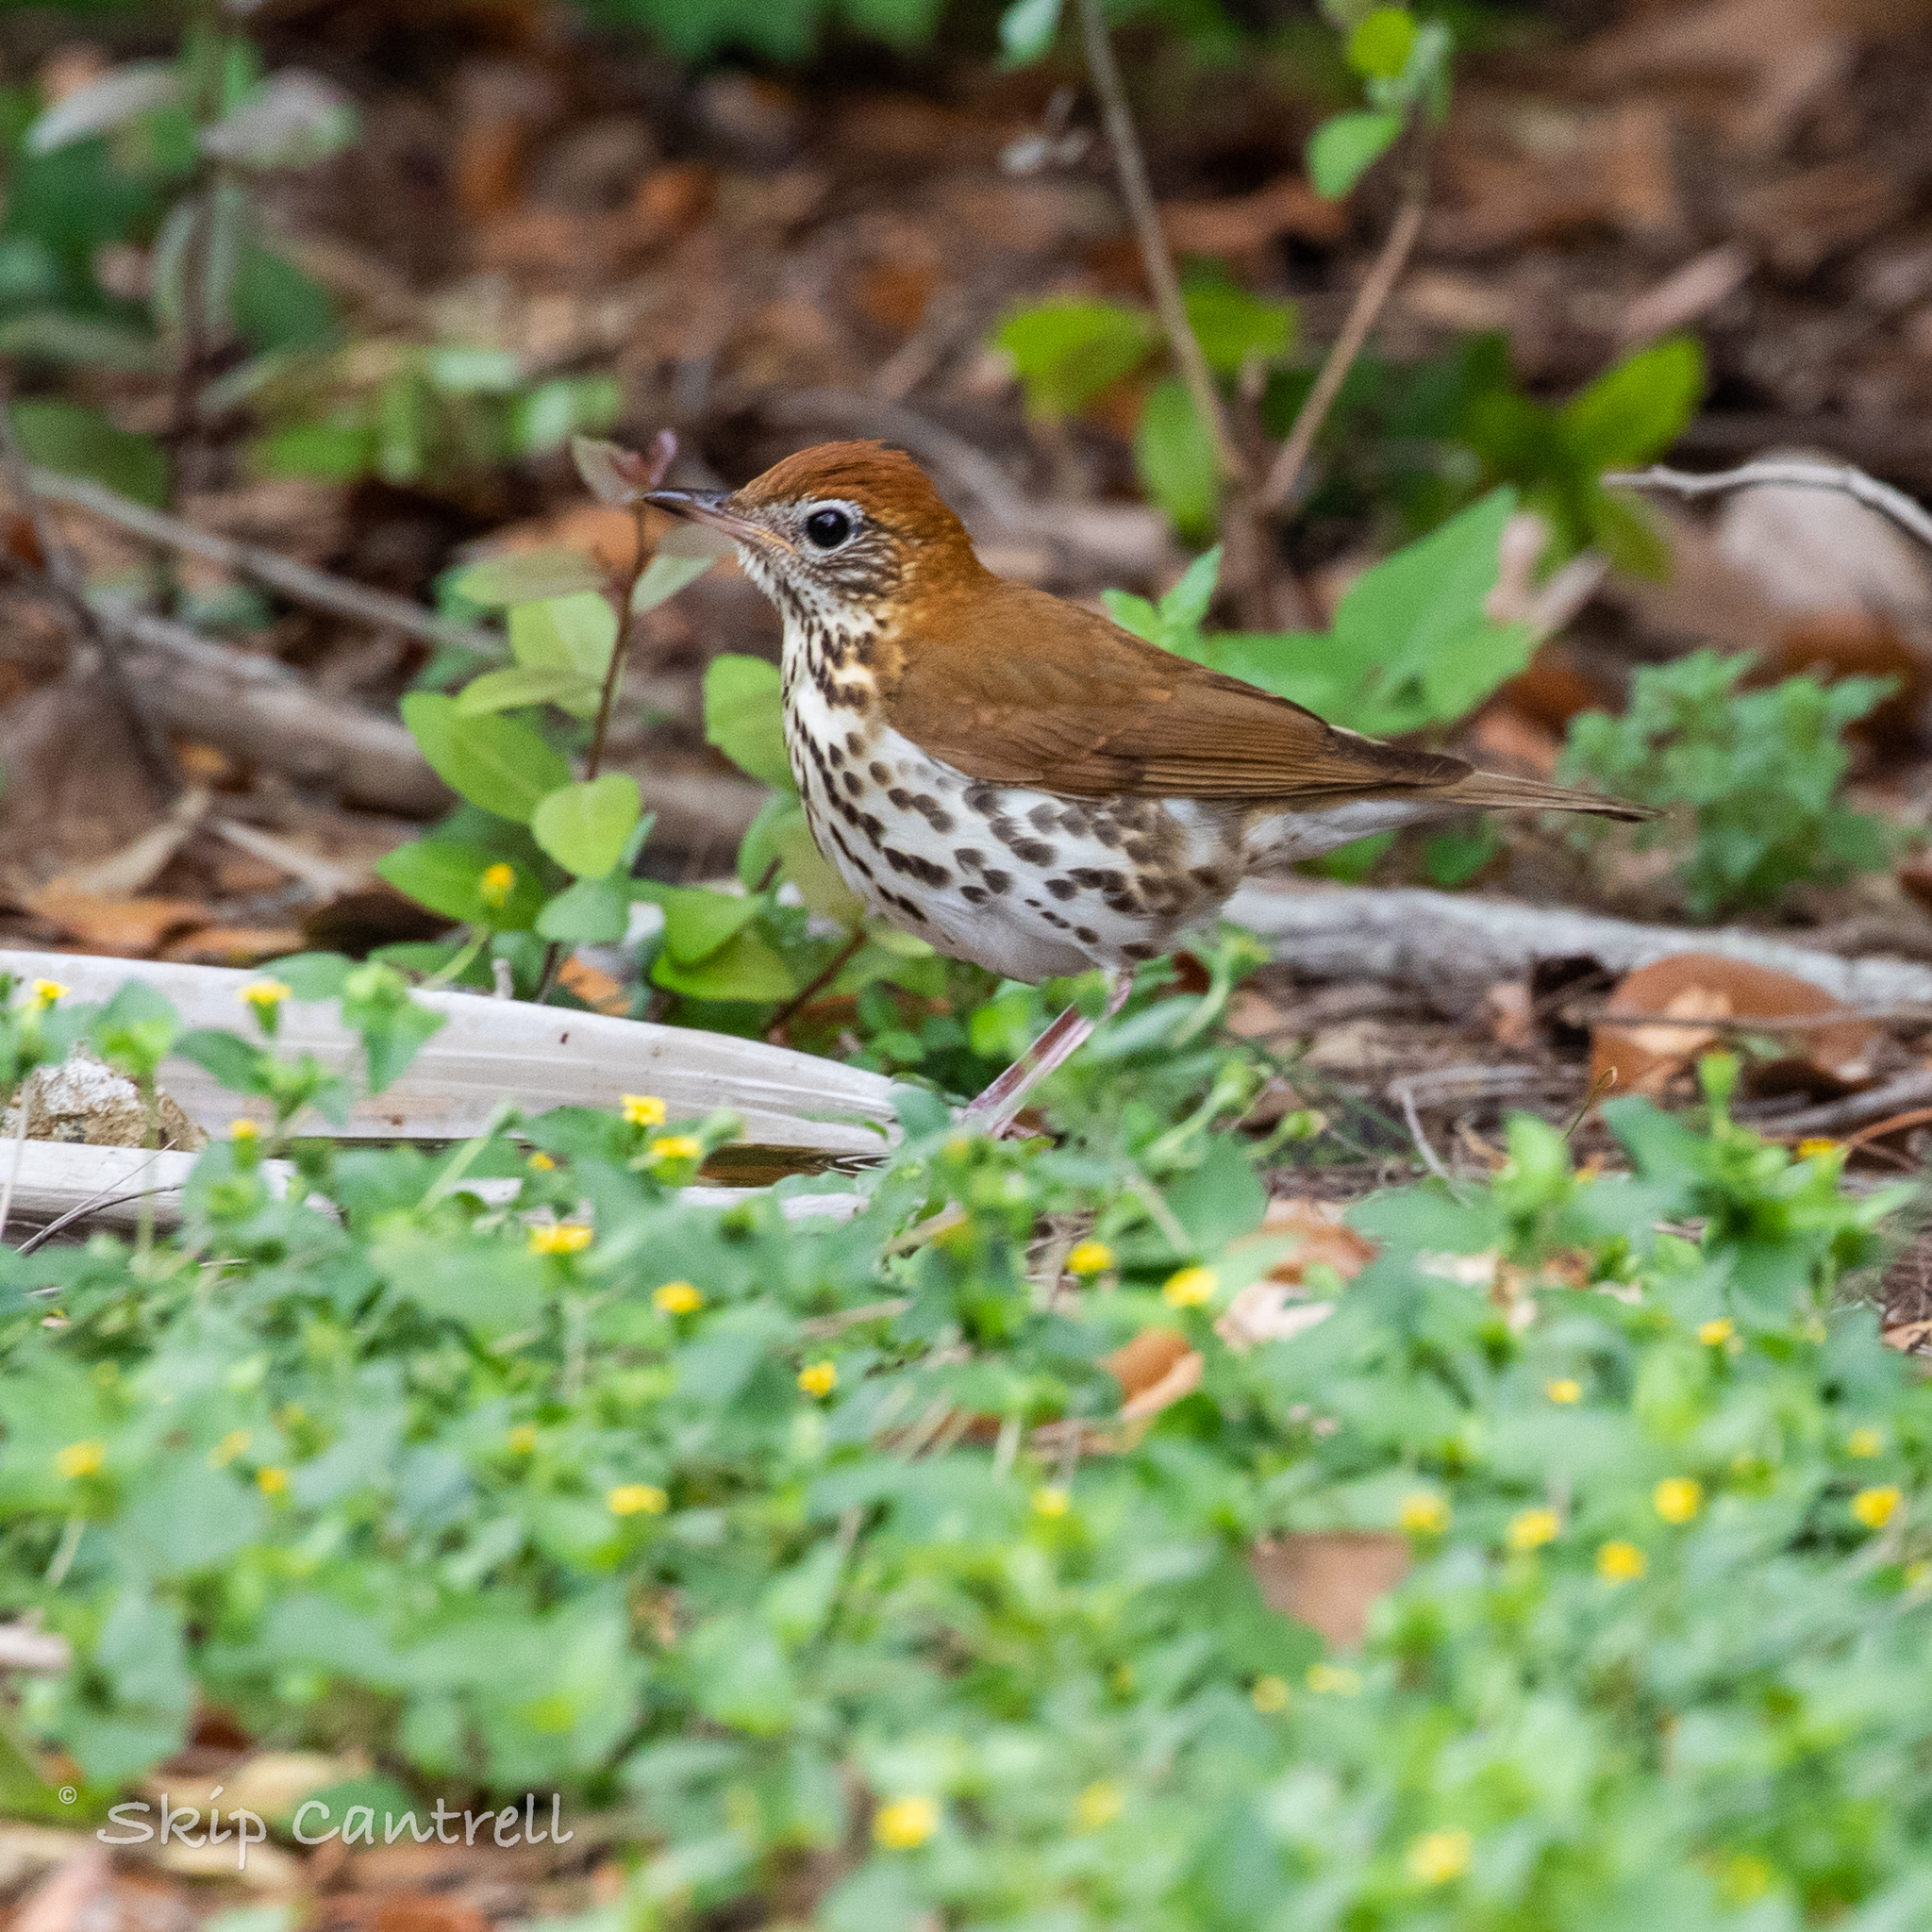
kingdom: Animalia
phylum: Chordata
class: Aves
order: Passeriformes
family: Turdidae
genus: Hylocichla
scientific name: Hylocichla mustelina
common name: Wood thrush
